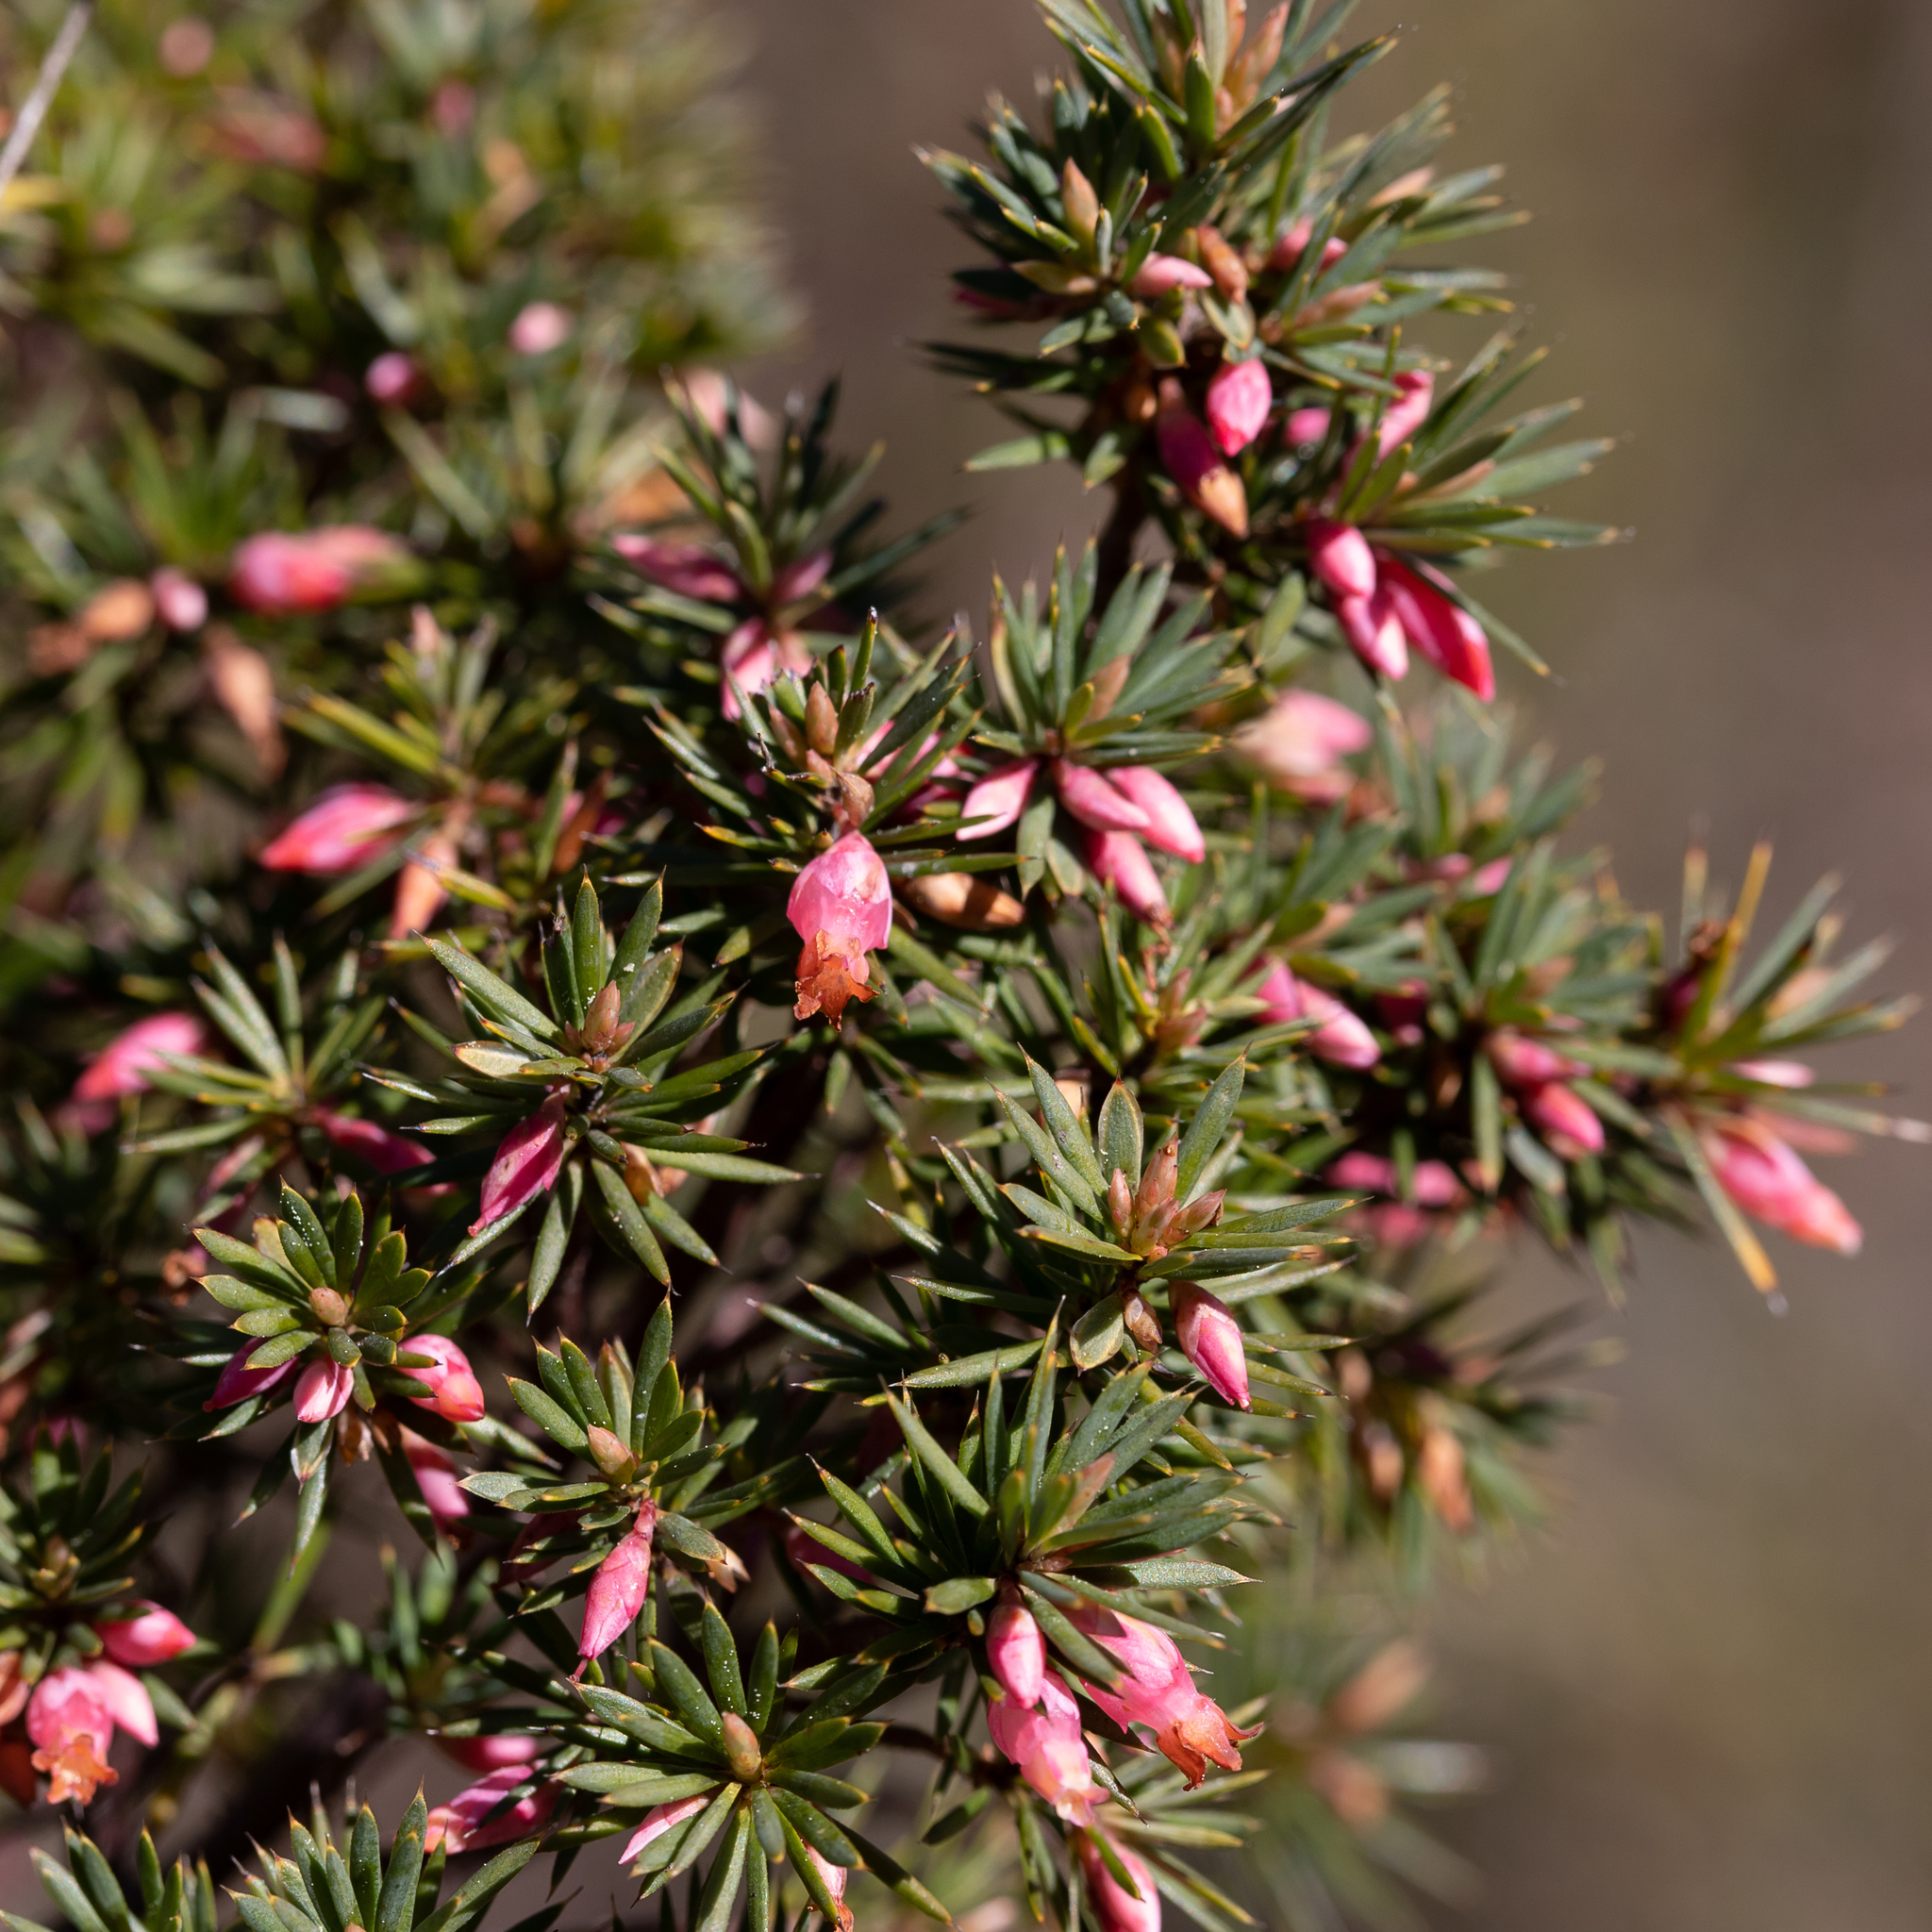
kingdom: Plantae
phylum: Tracheophyta
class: Magnoliopsida
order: Ericales
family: Ericaceae
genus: Brachyloma
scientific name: Brachyloma ericoides
